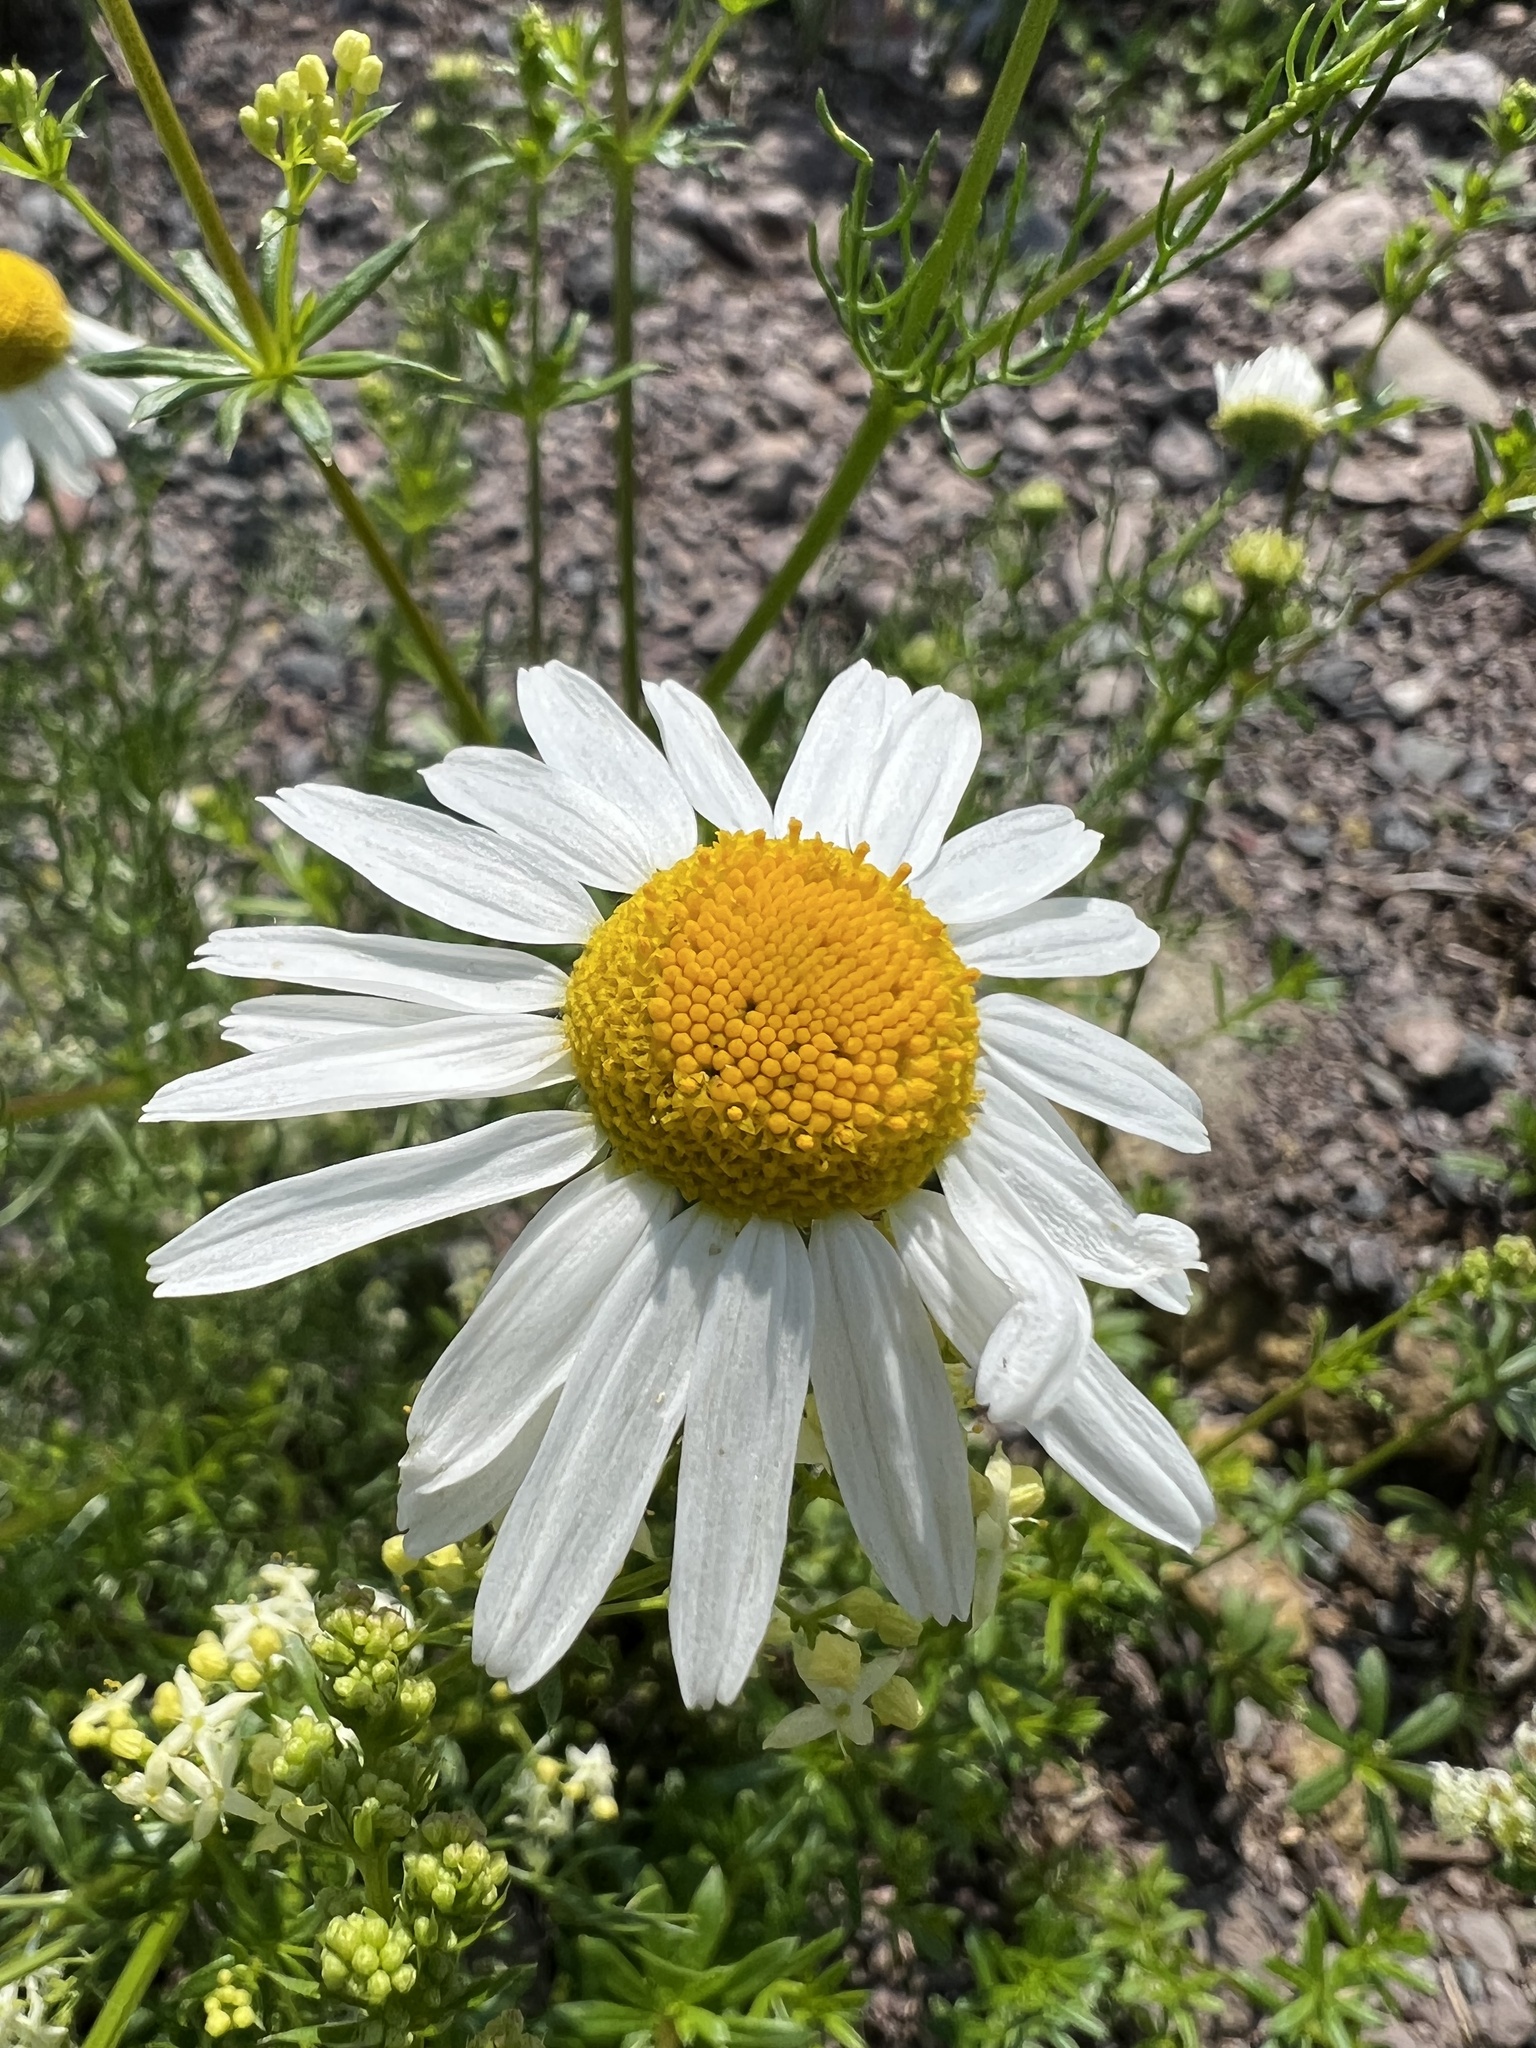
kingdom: Plantae
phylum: Tracheophyta
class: Magnoliopsida
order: Asterales
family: Asteraceae
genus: Tripleurospermum
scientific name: Tripleurospermum inodorum
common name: Scentless mayweed
